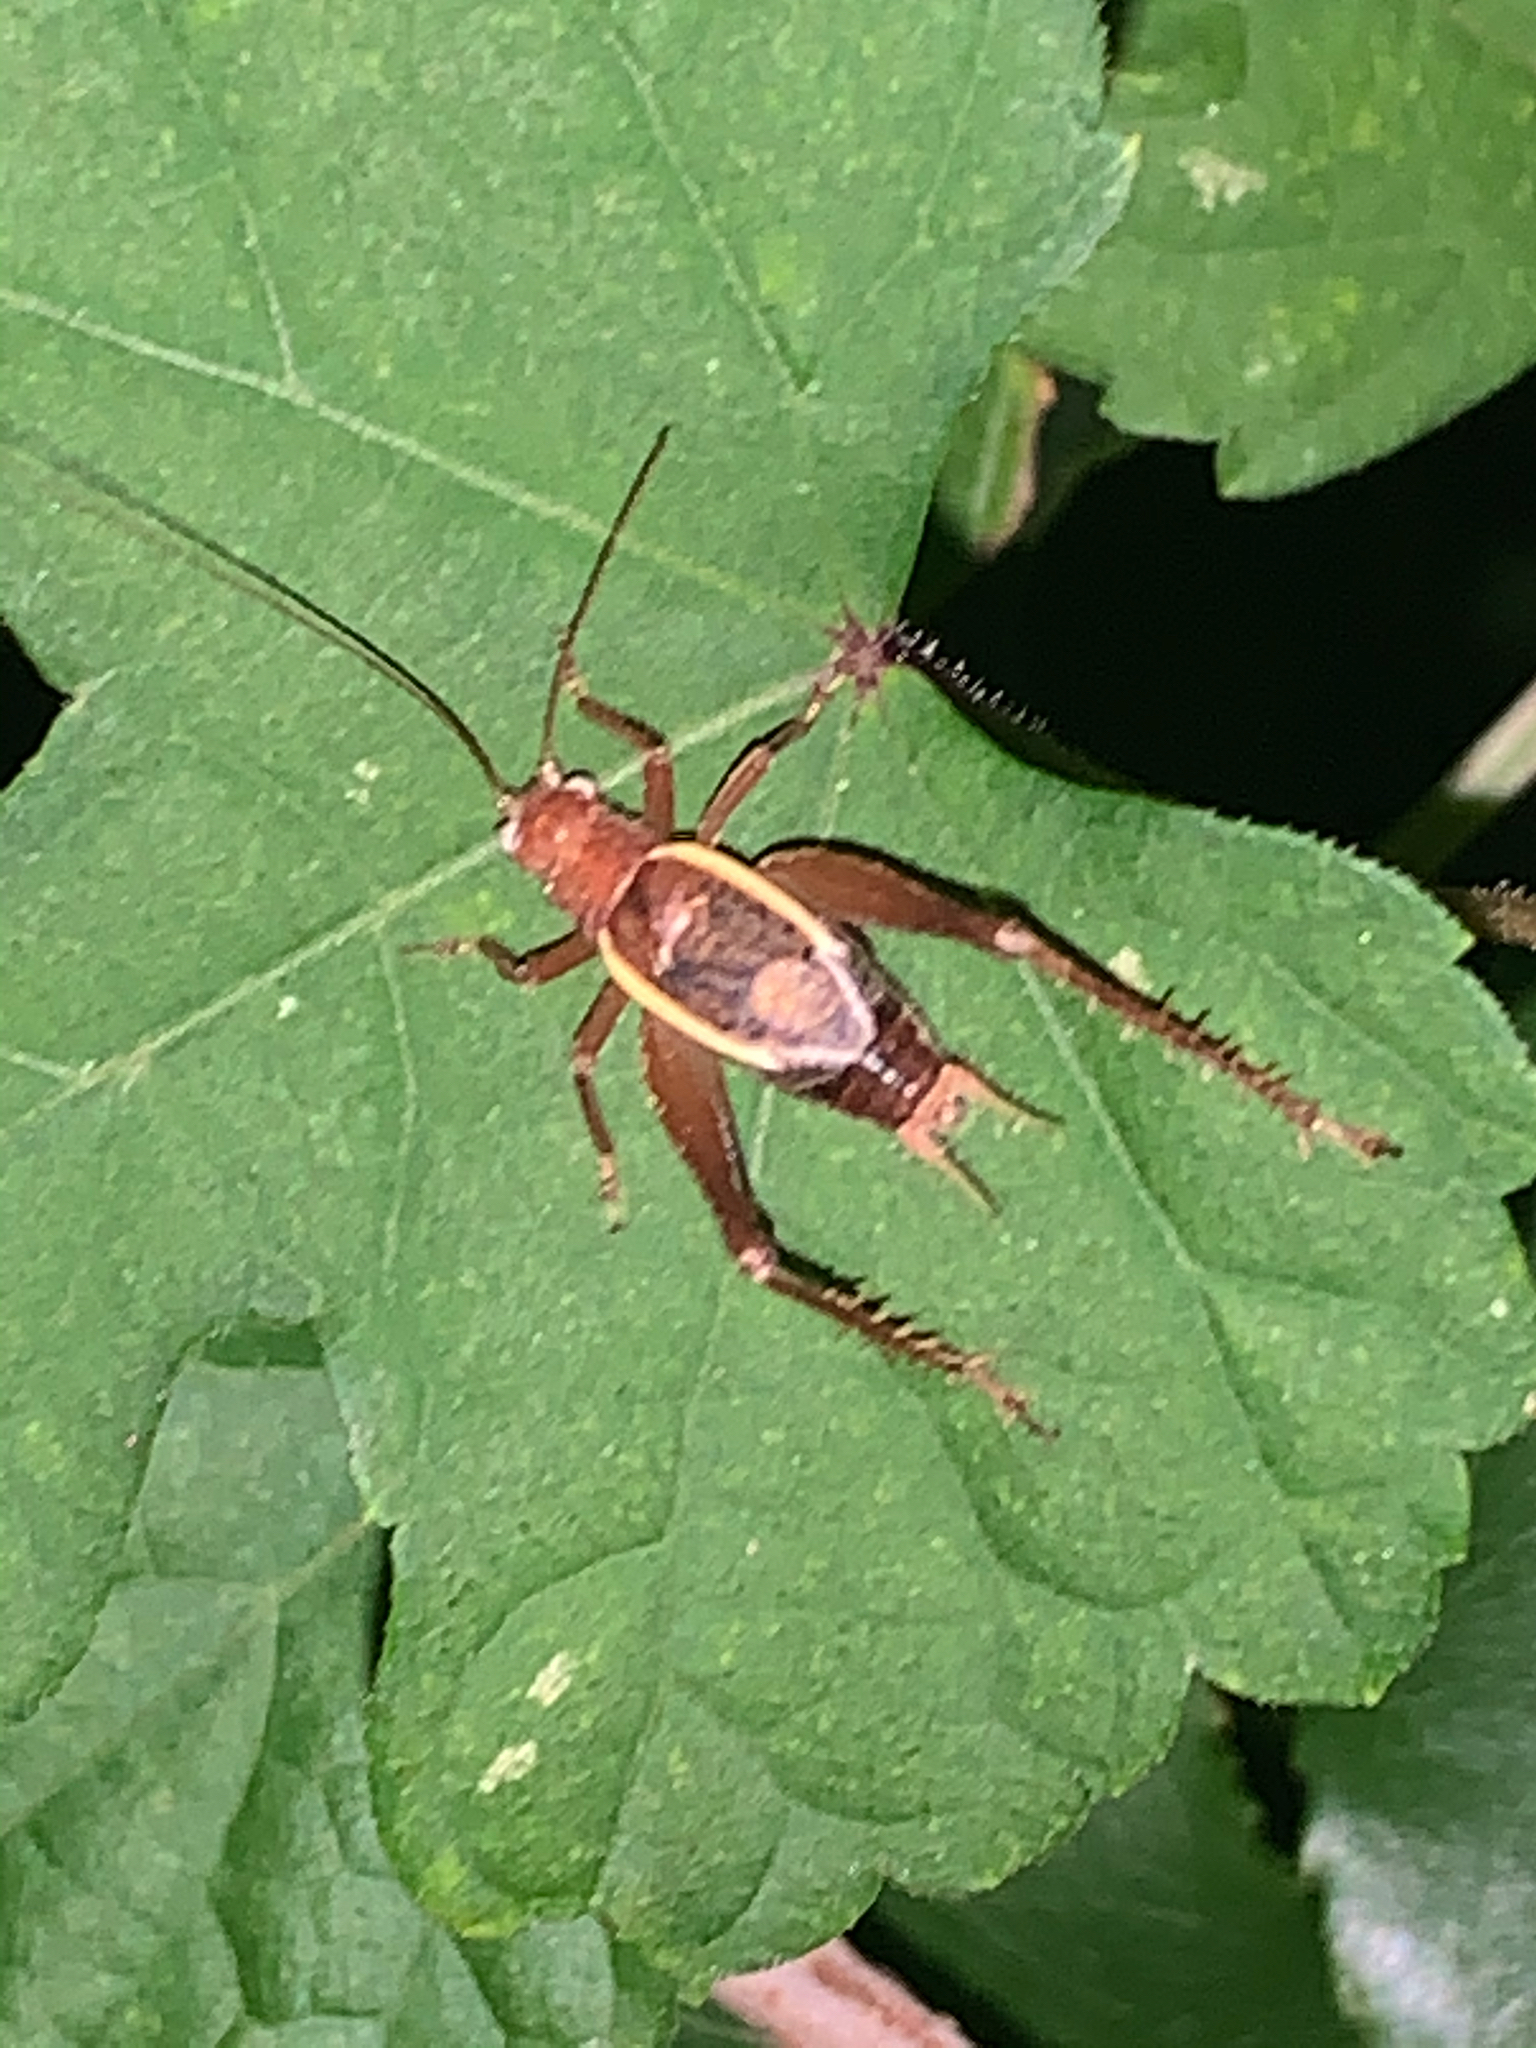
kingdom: Animalia
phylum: Arthropoda
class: Insecta
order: Orthoptera
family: Gryllidae
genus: Hapithus
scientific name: Hapithus agitator
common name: Restless bush cricket
